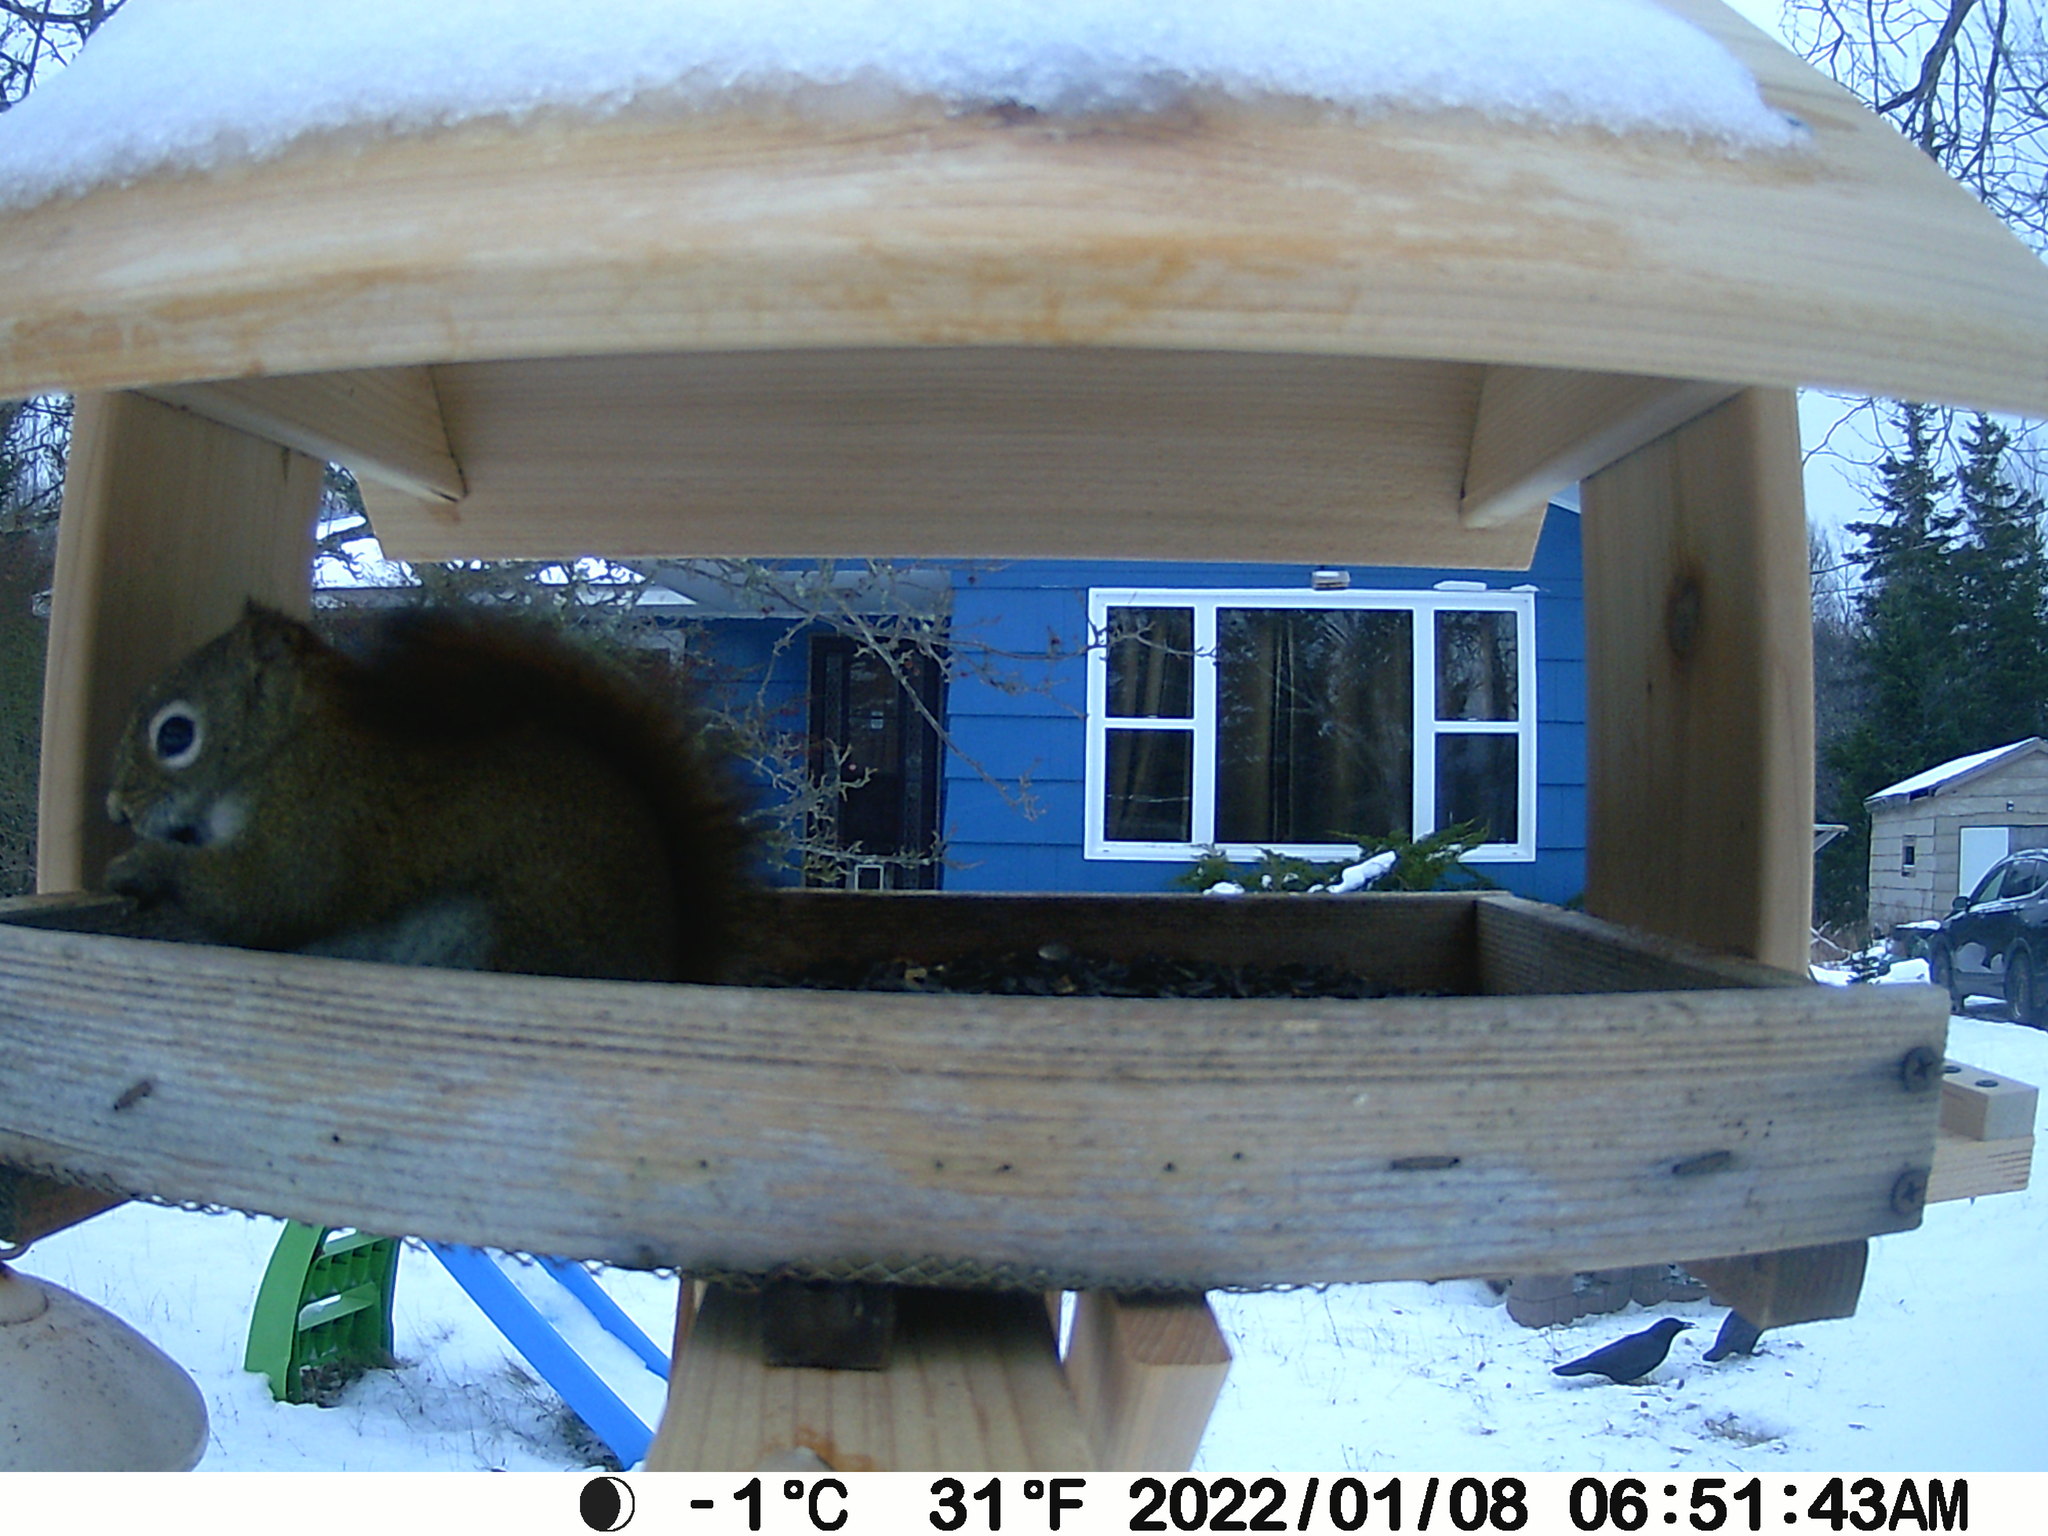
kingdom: Animalia
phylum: Chordata
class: Mammalia
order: Rodentia
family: Sciuridae
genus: Tamiasciurus
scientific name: Tamiasciurus hudsonicus
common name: Red squirrel
